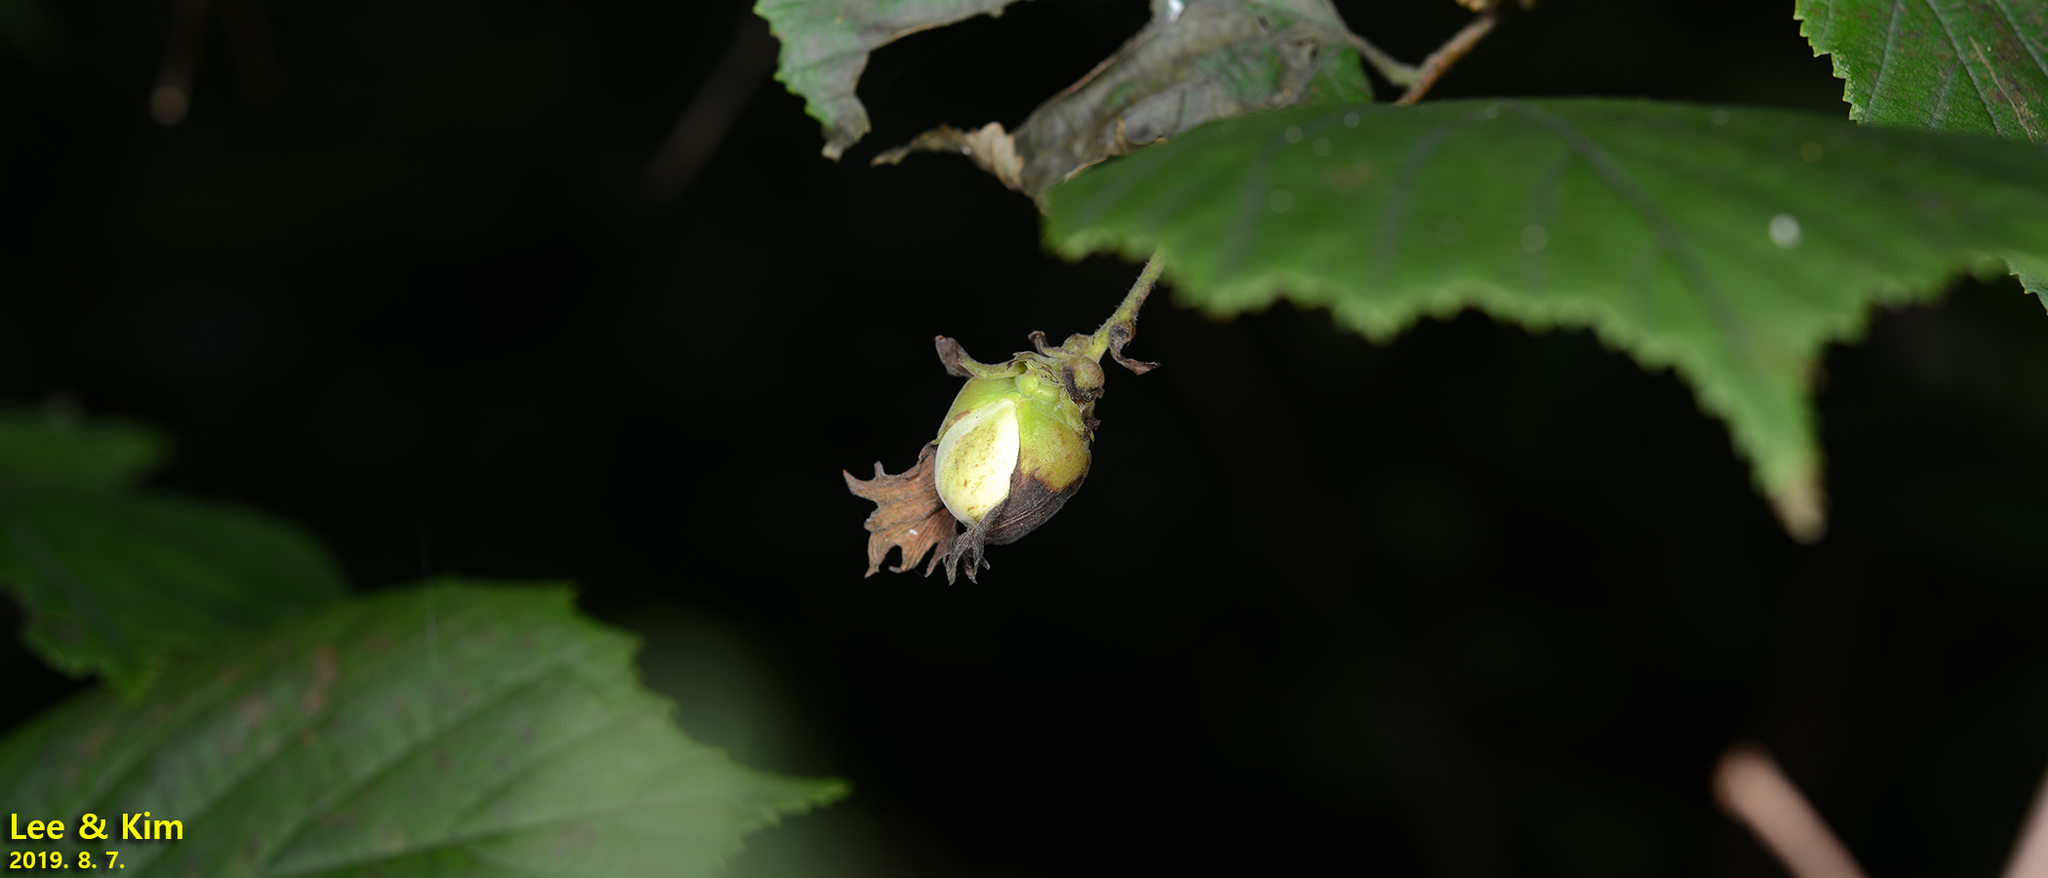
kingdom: Plantae
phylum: Tracheophyta
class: Magnoliopsida
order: Fagales
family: Betulaceae
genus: Corylus
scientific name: Corylus heterophylla
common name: Siberian hazelnut
